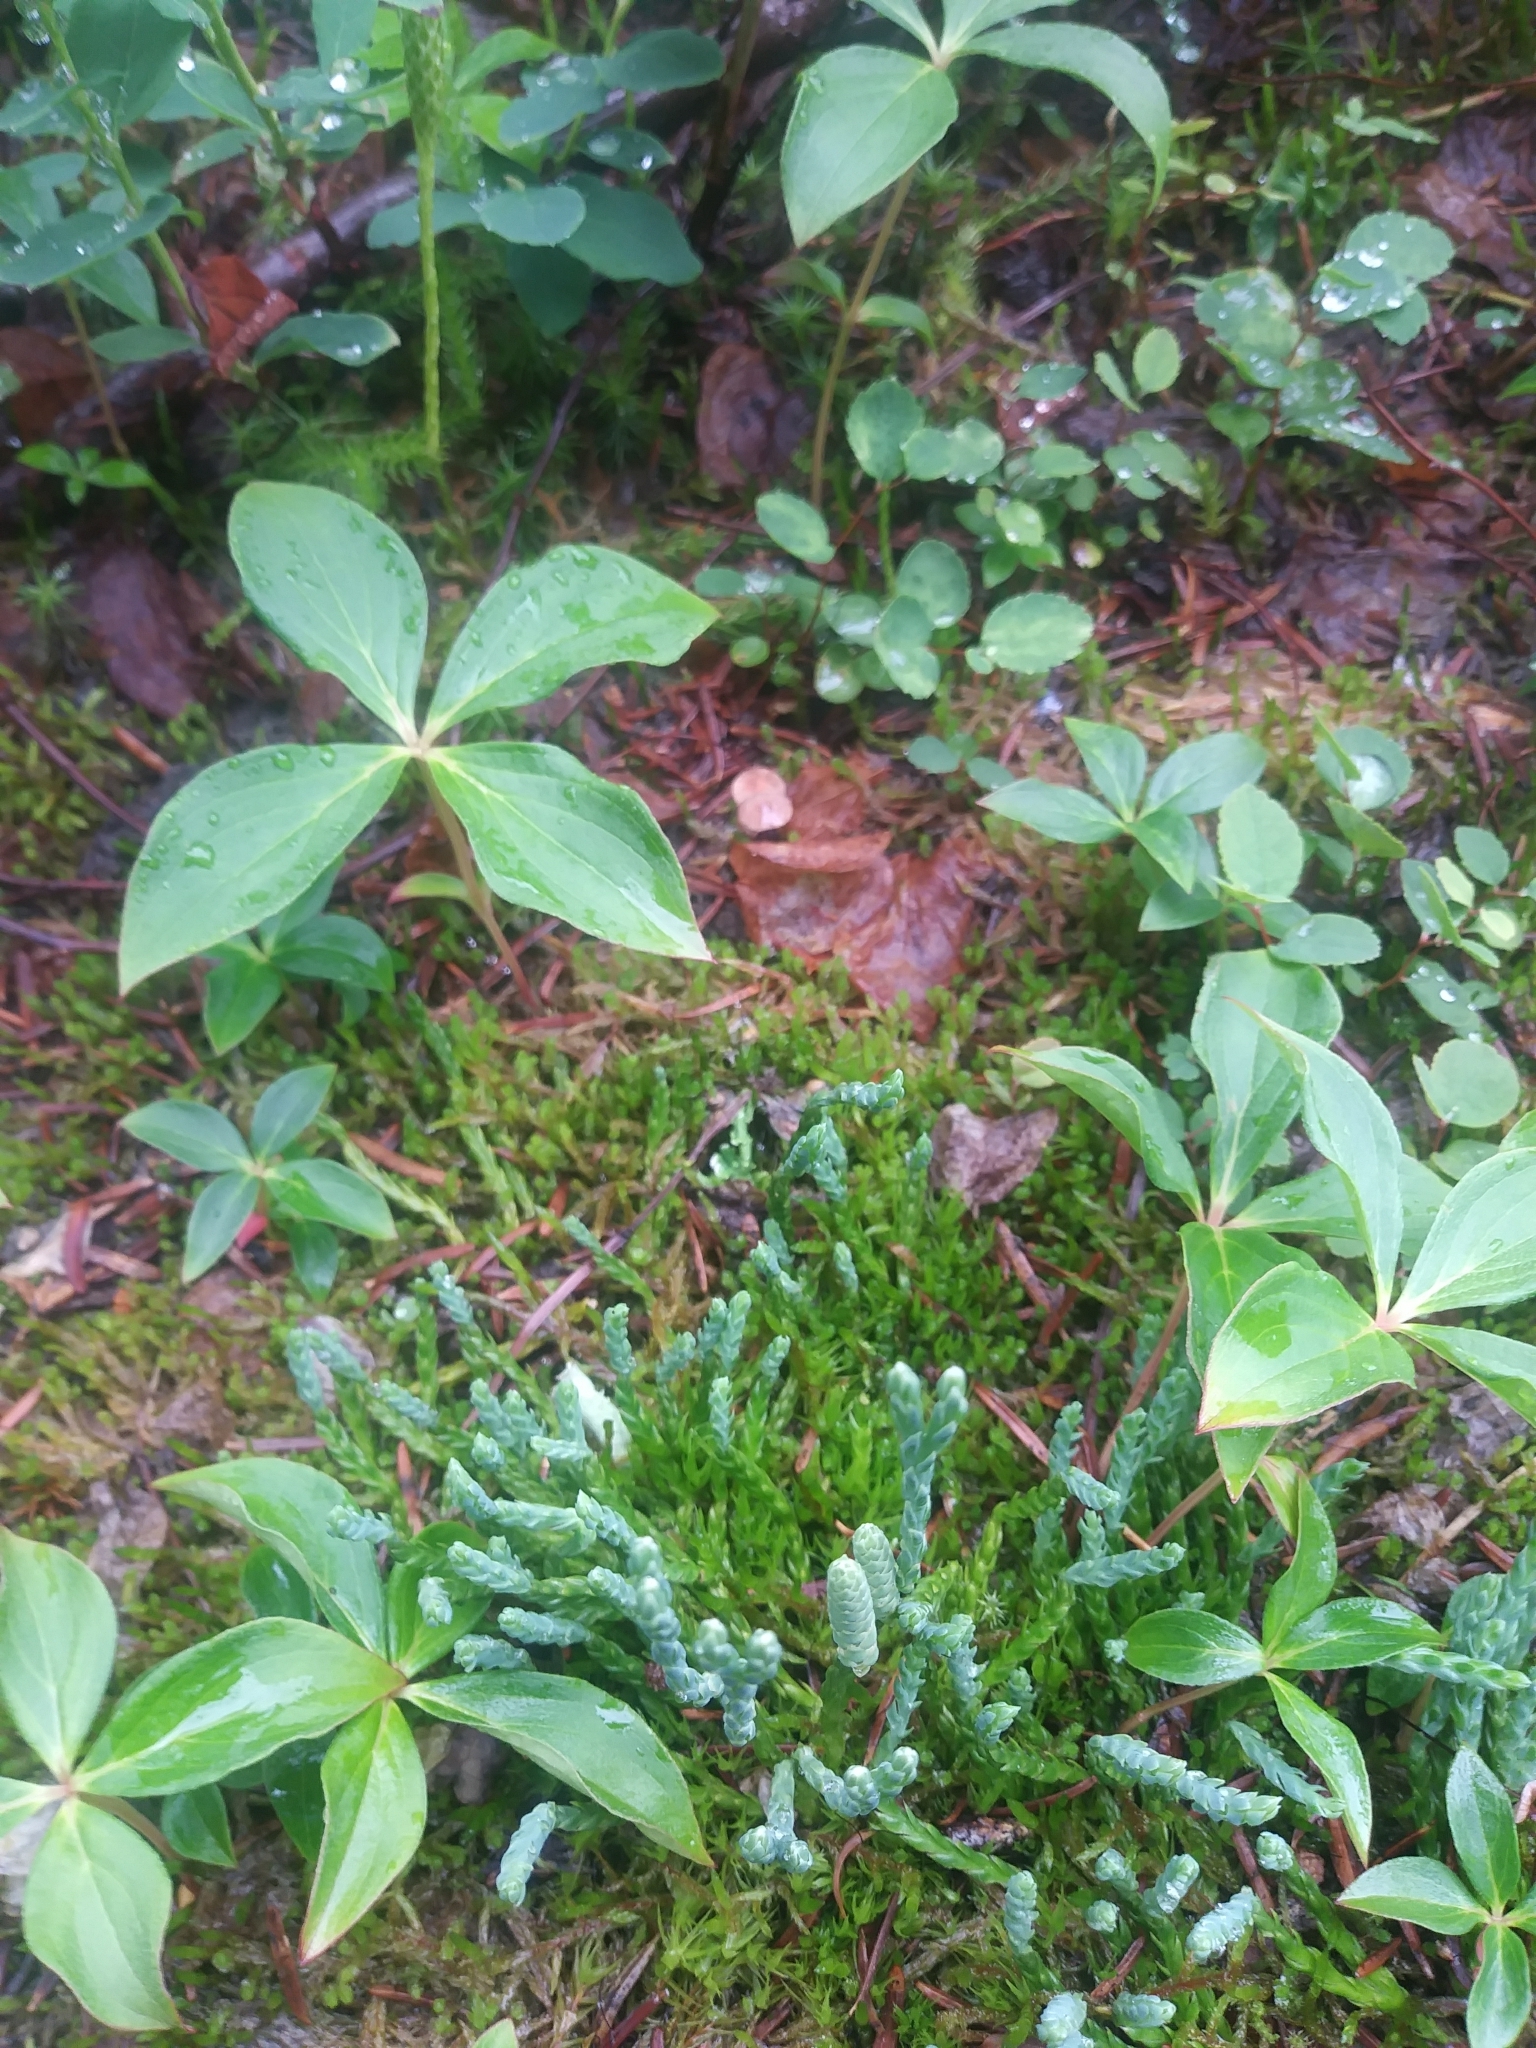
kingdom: Plantae
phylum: Tracheophyta
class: Lycopodiopsida
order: Lycopodiales
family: Lycopodiaceae
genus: Diphasiastrum
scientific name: Diphasiastrum alpinum
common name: Alpine clubmoss
